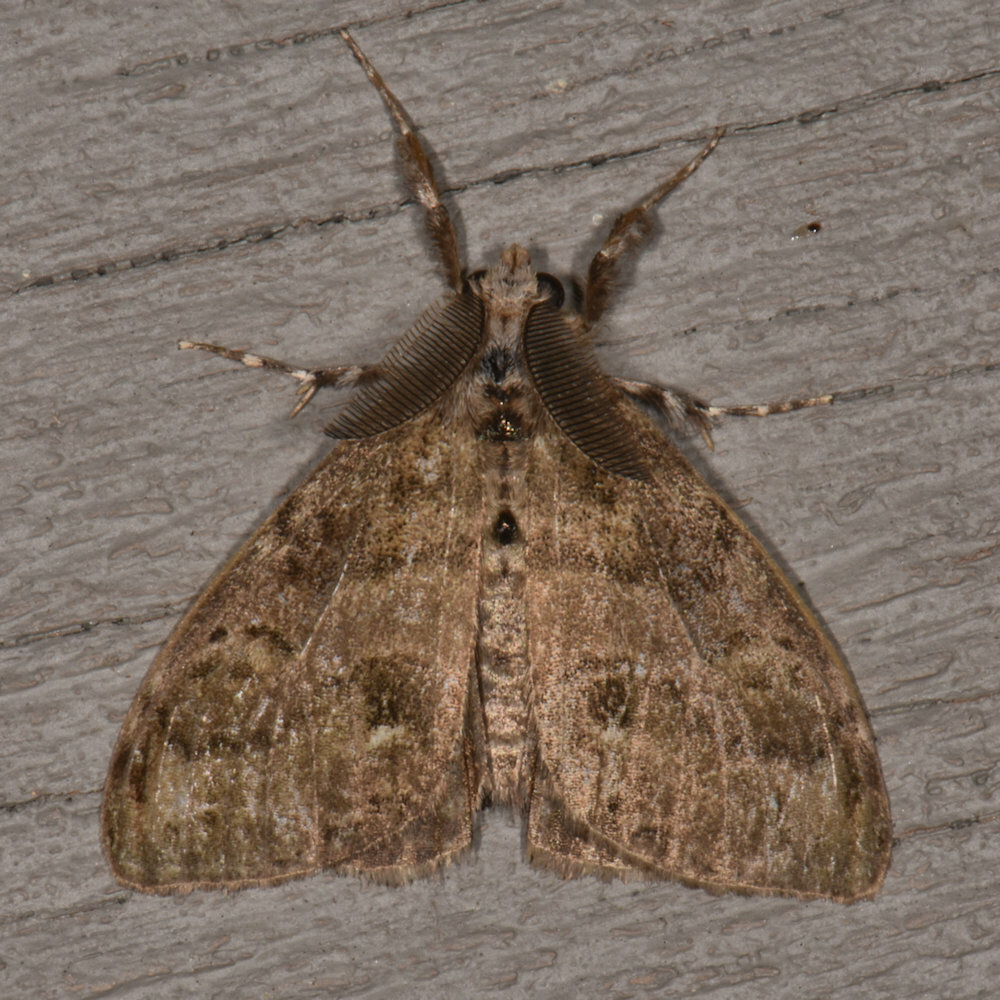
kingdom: Animalia
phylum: Arthropoda
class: Insecta
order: Lepidoptera
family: Erebidae
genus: Lymantria
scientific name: Lymantria dispar
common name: Gypsy moth
